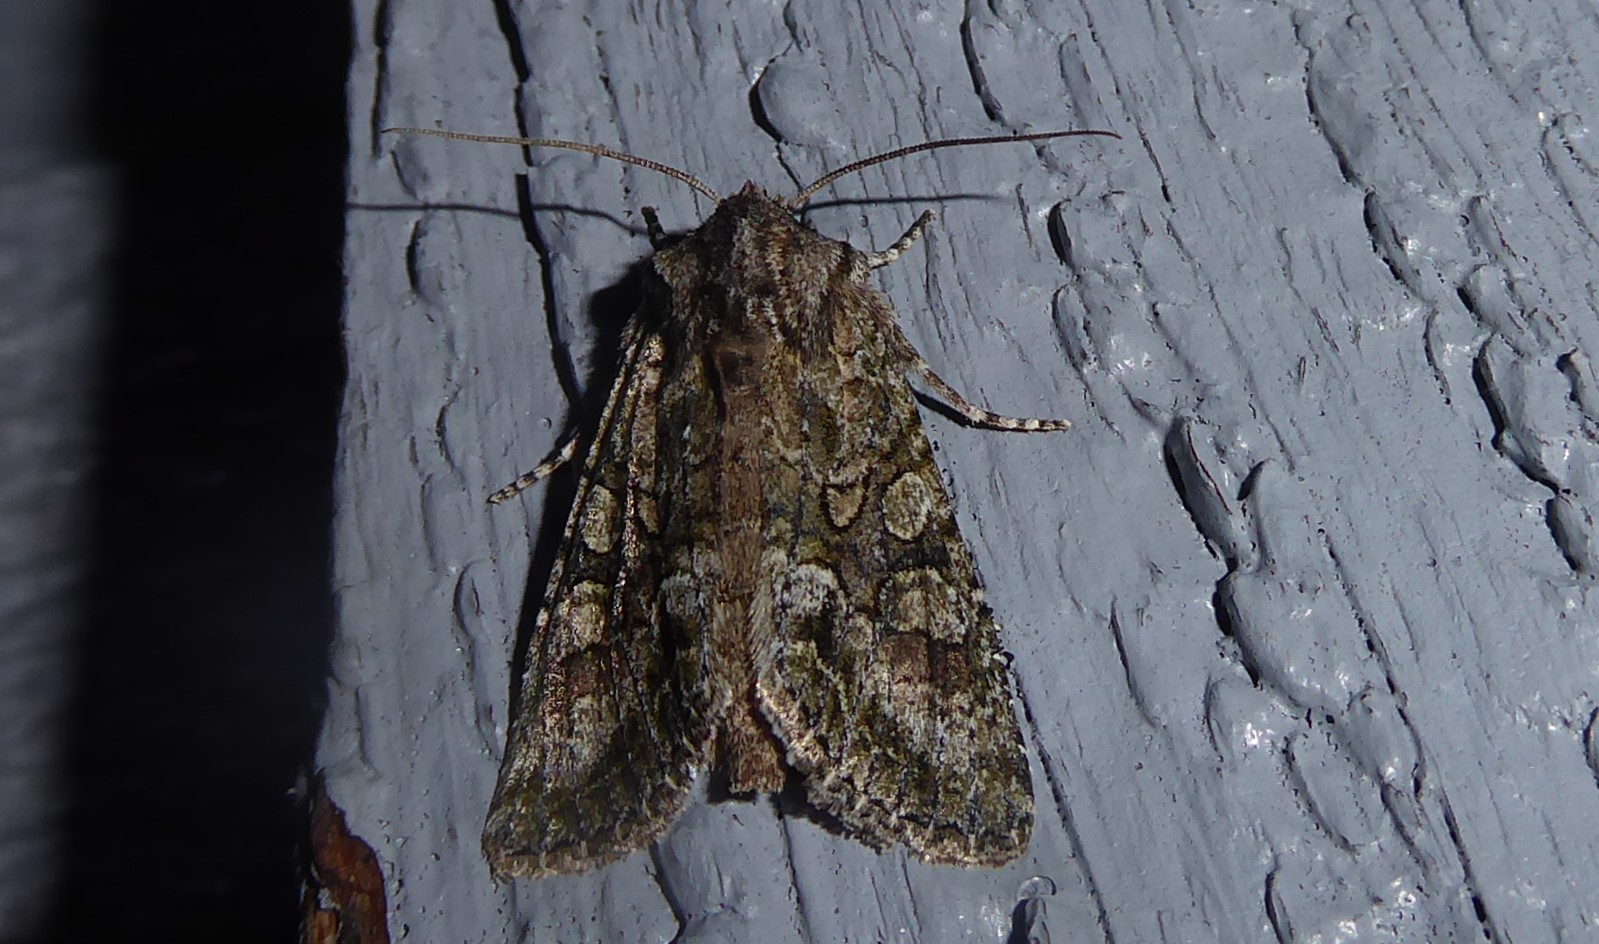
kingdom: Animalia
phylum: Arthropoda
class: Insecta
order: Lepidoptera
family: Noctuidae
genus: Ichneutica
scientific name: Ichneutica mutans
